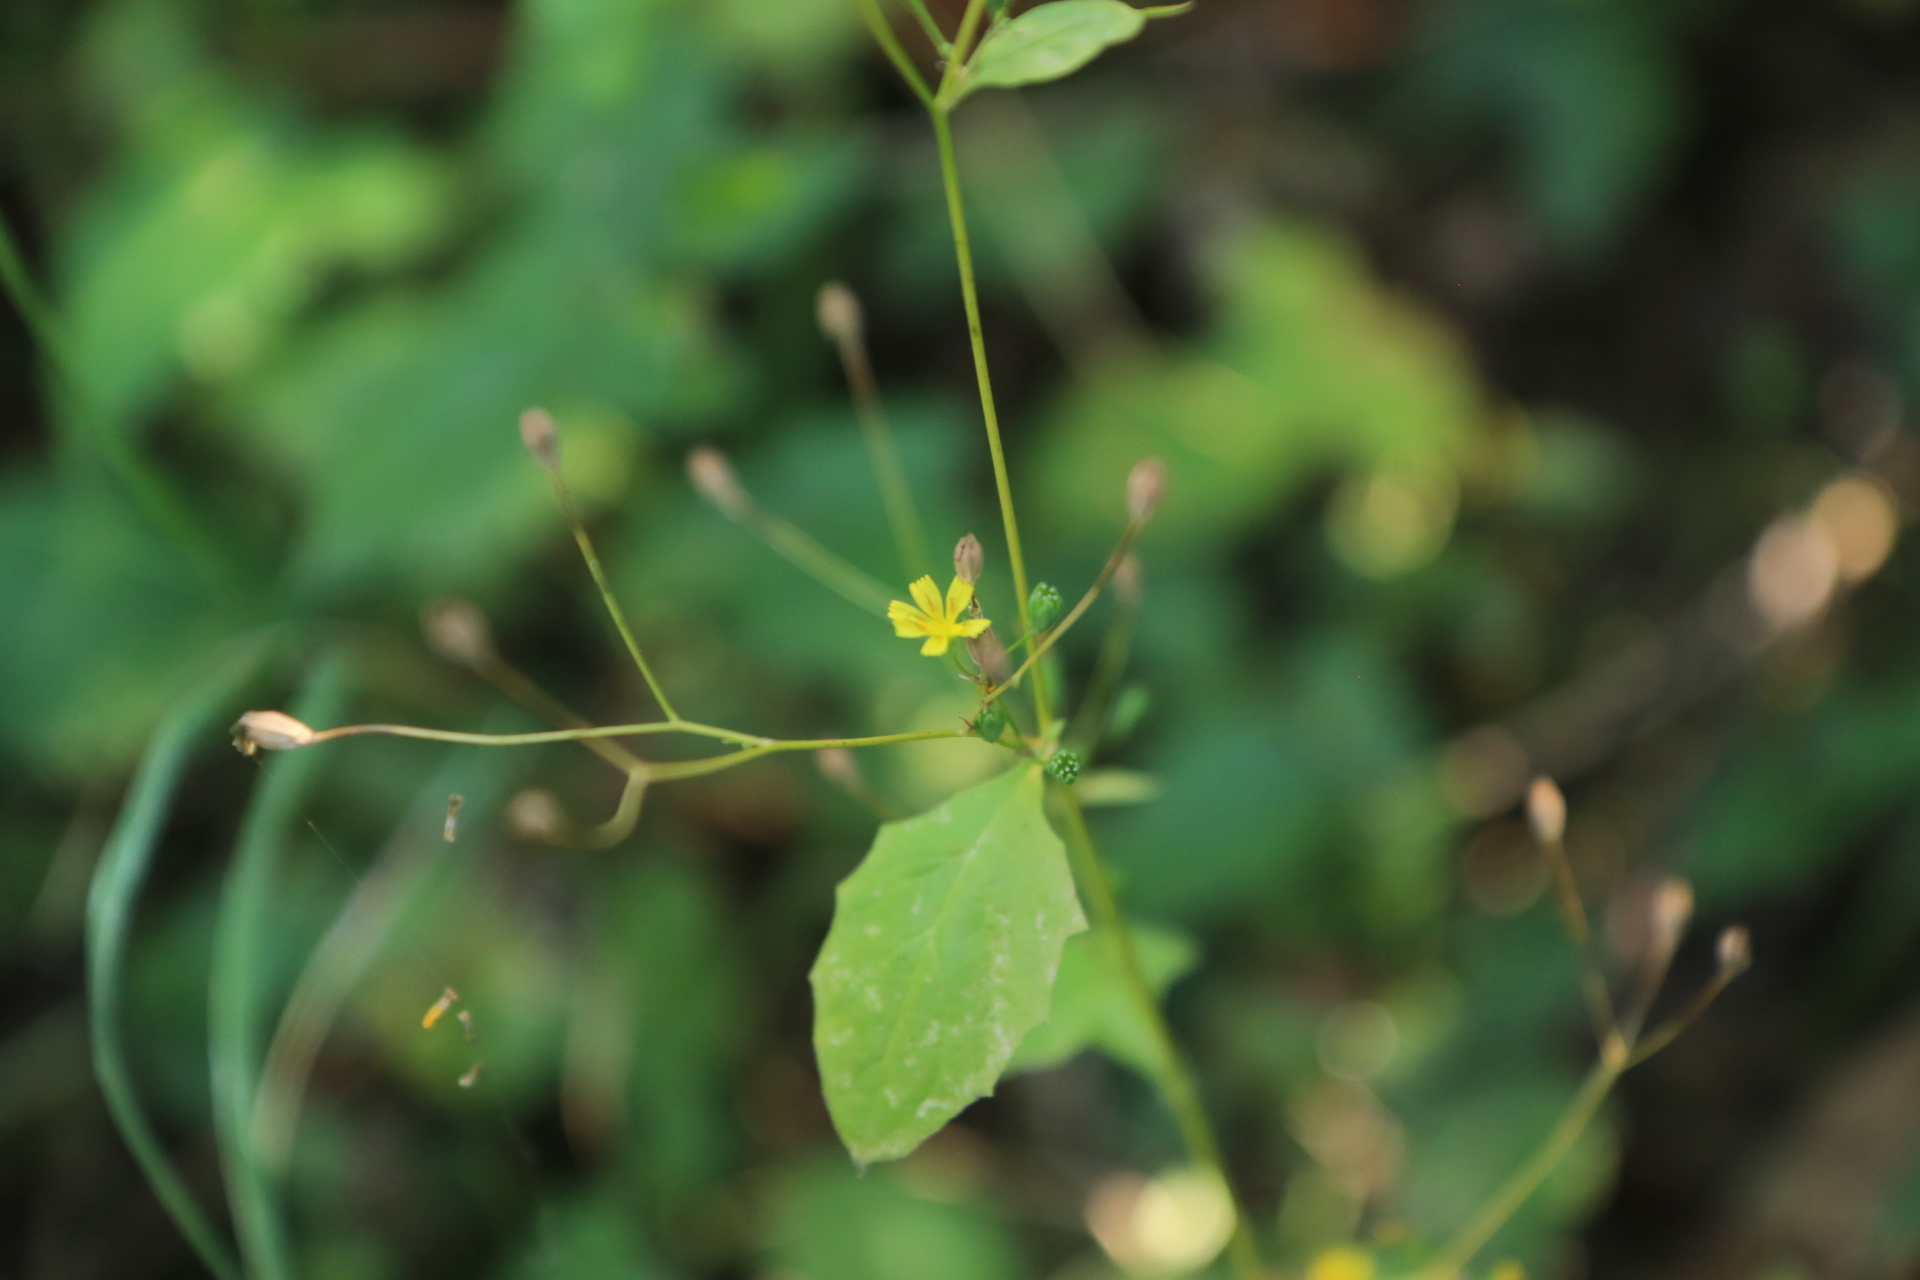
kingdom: Plantae
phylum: Tracheophyta
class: Magnoliopsida
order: Asterales
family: Asteraceae
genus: Lapsana
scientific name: Lapsana communis
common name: Nipplewort
